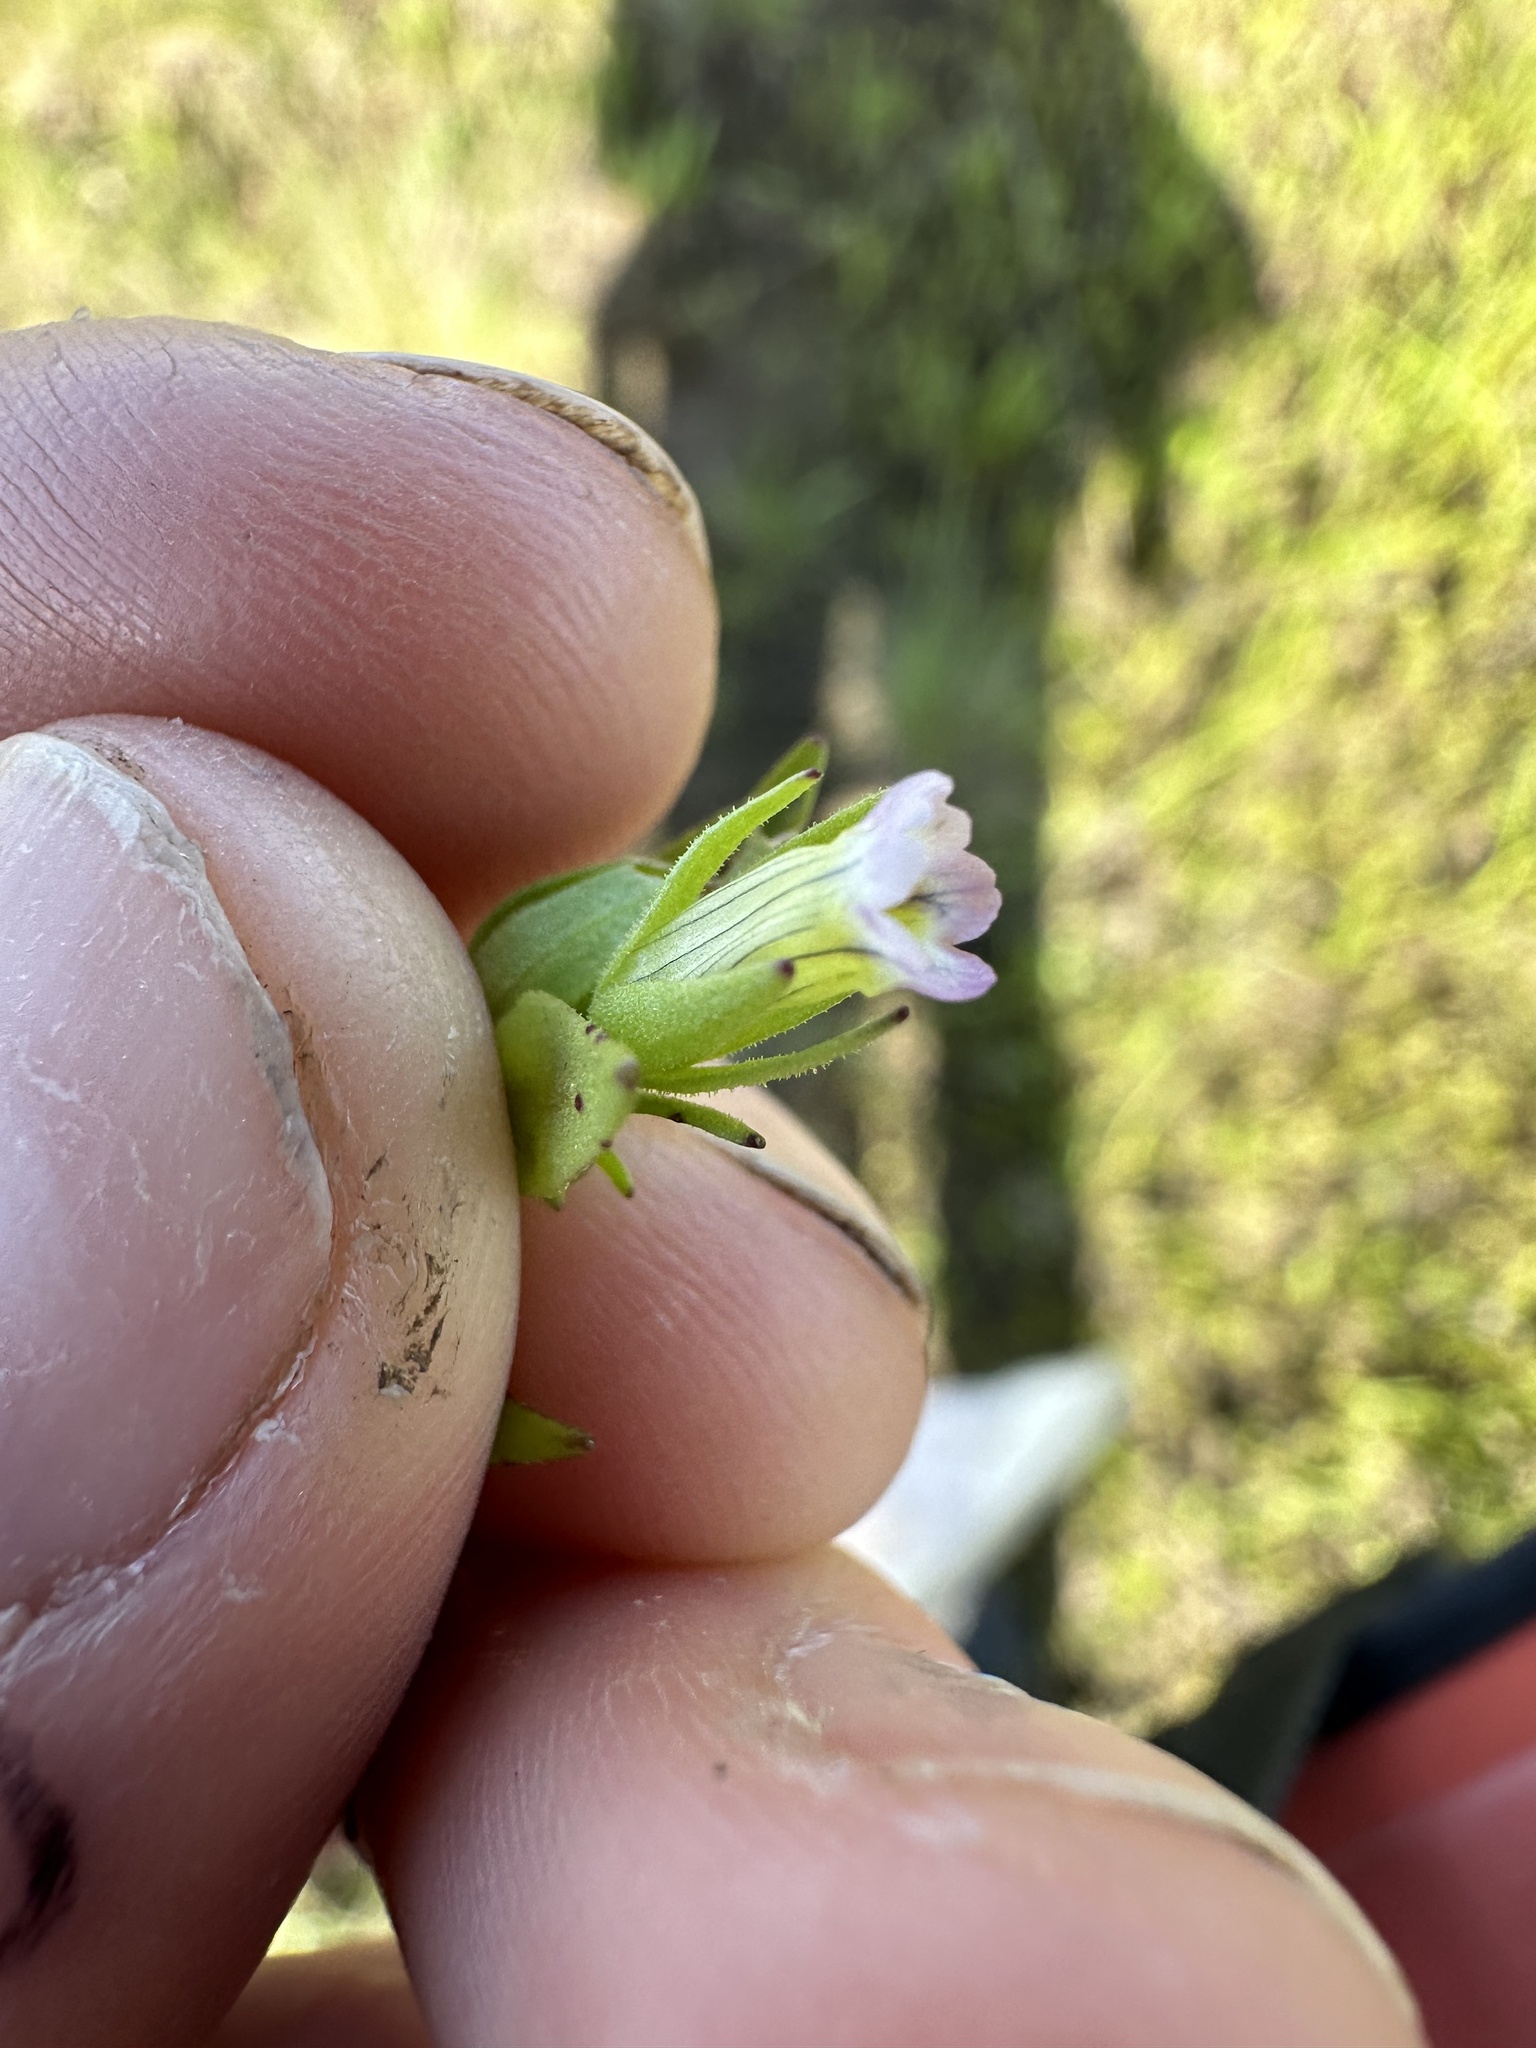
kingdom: Plantae
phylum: Tracheophyta
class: Magnoliopsida
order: Lamiales
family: Plantaginaceae
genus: Gratiola
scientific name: Gratiola ebracteata
